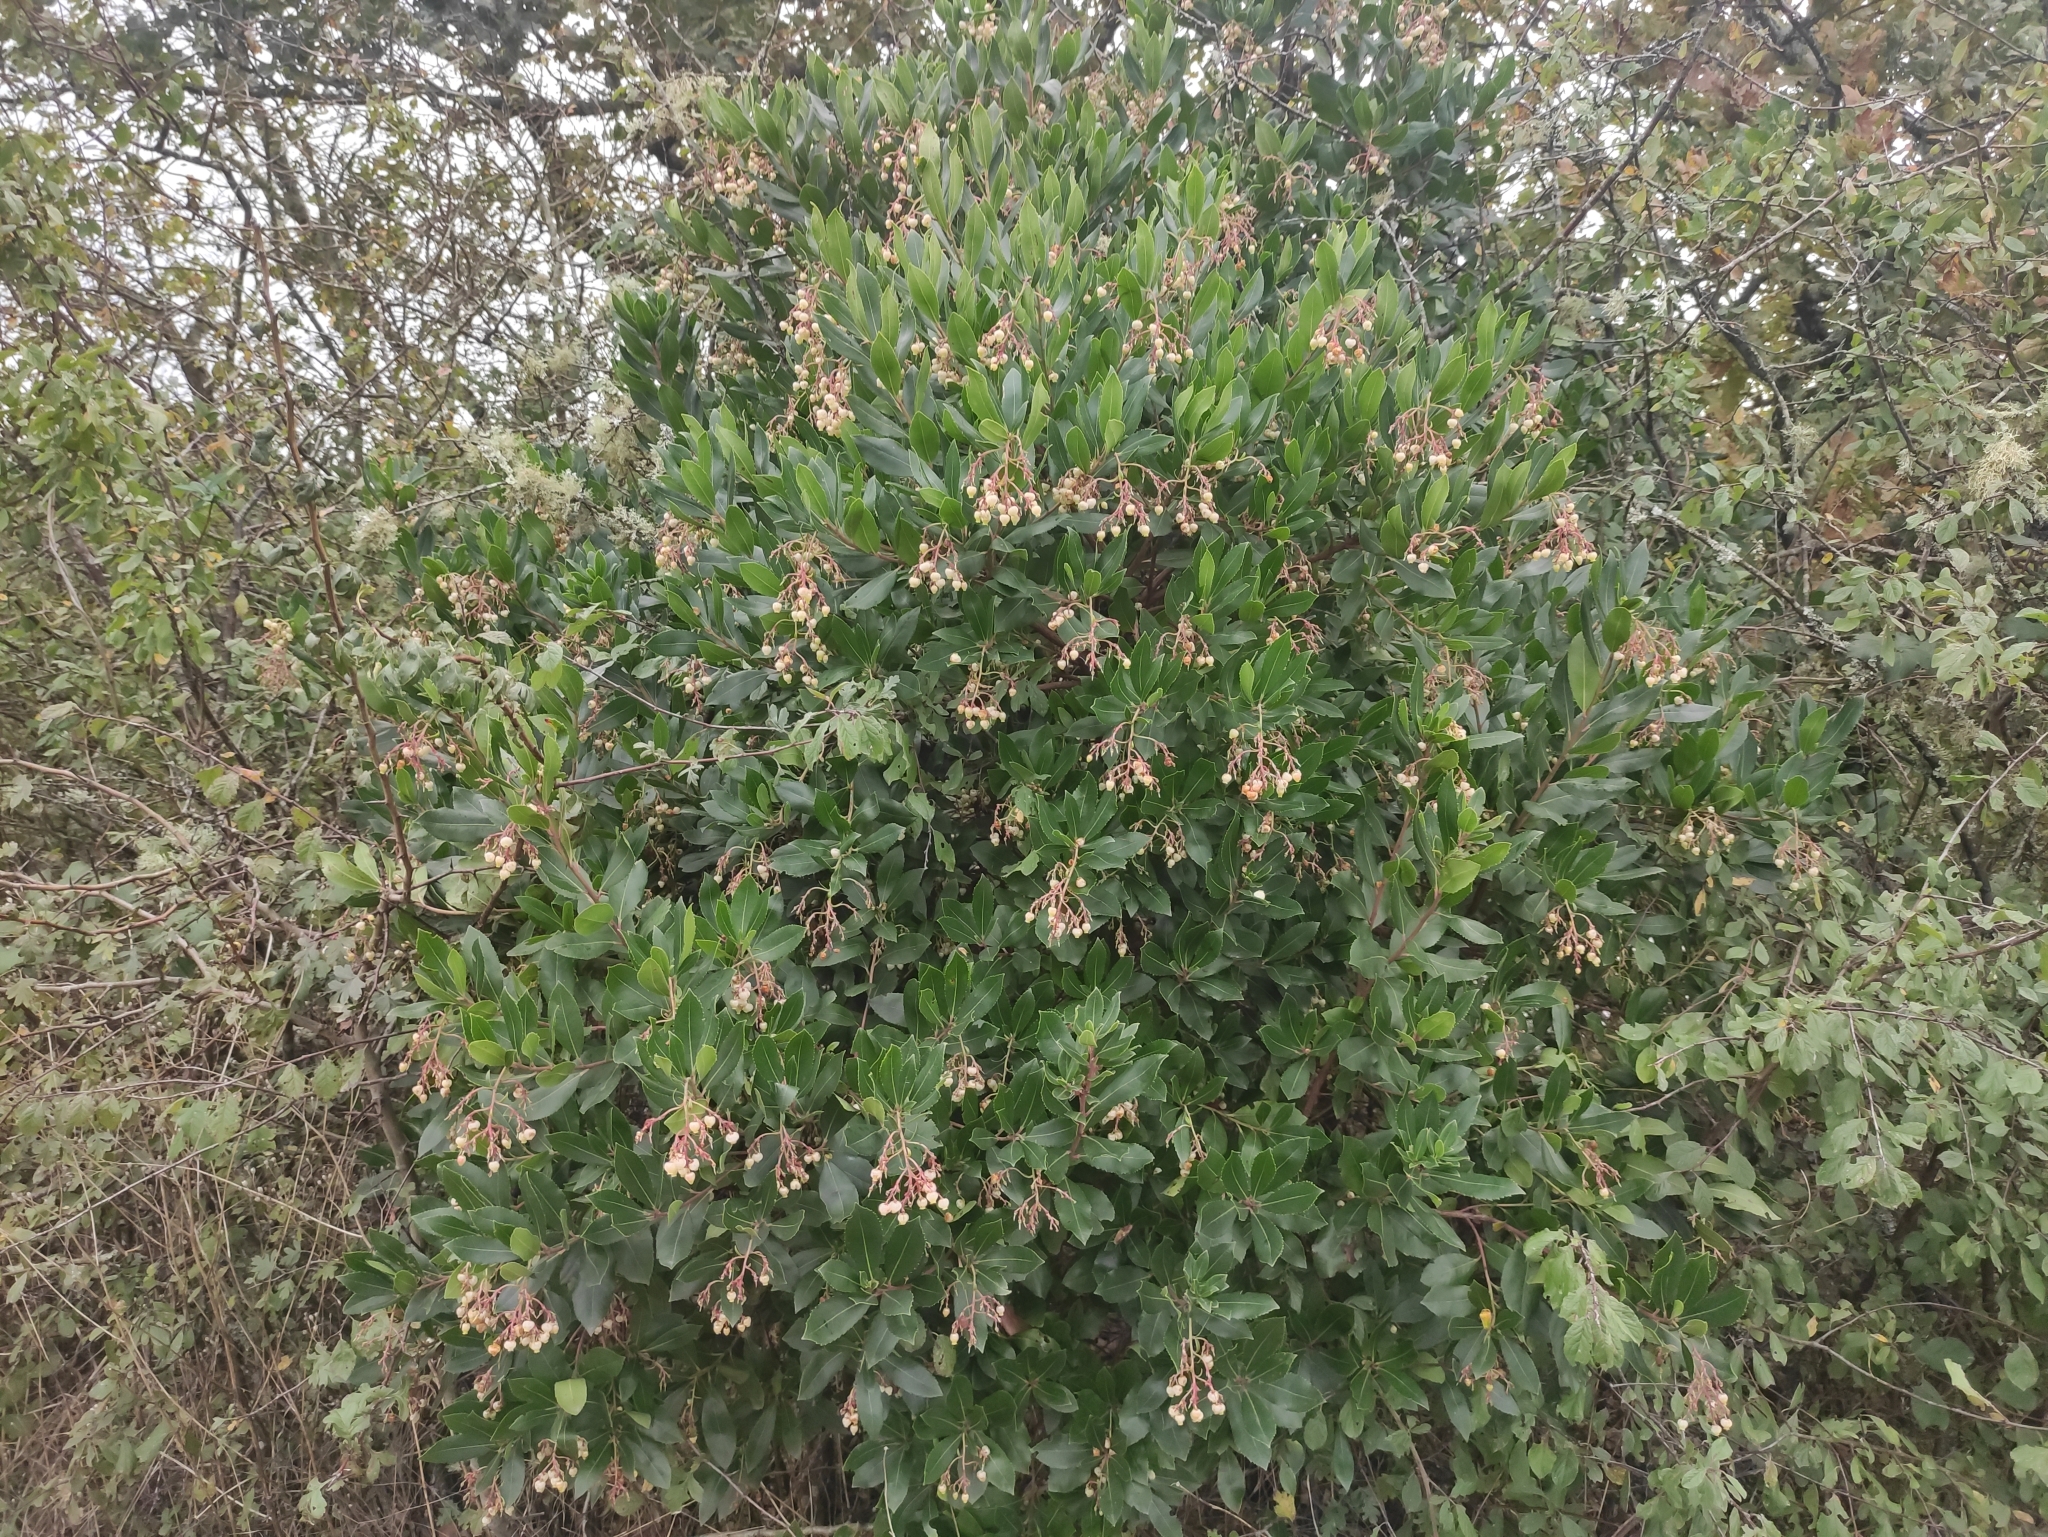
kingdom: Plantae
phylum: Tracheophyta
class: Magnoliopsida
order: Ericales
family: Ericaceae
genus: Arbutus
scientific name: Arbutus unedo
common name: Strawberry-tree
